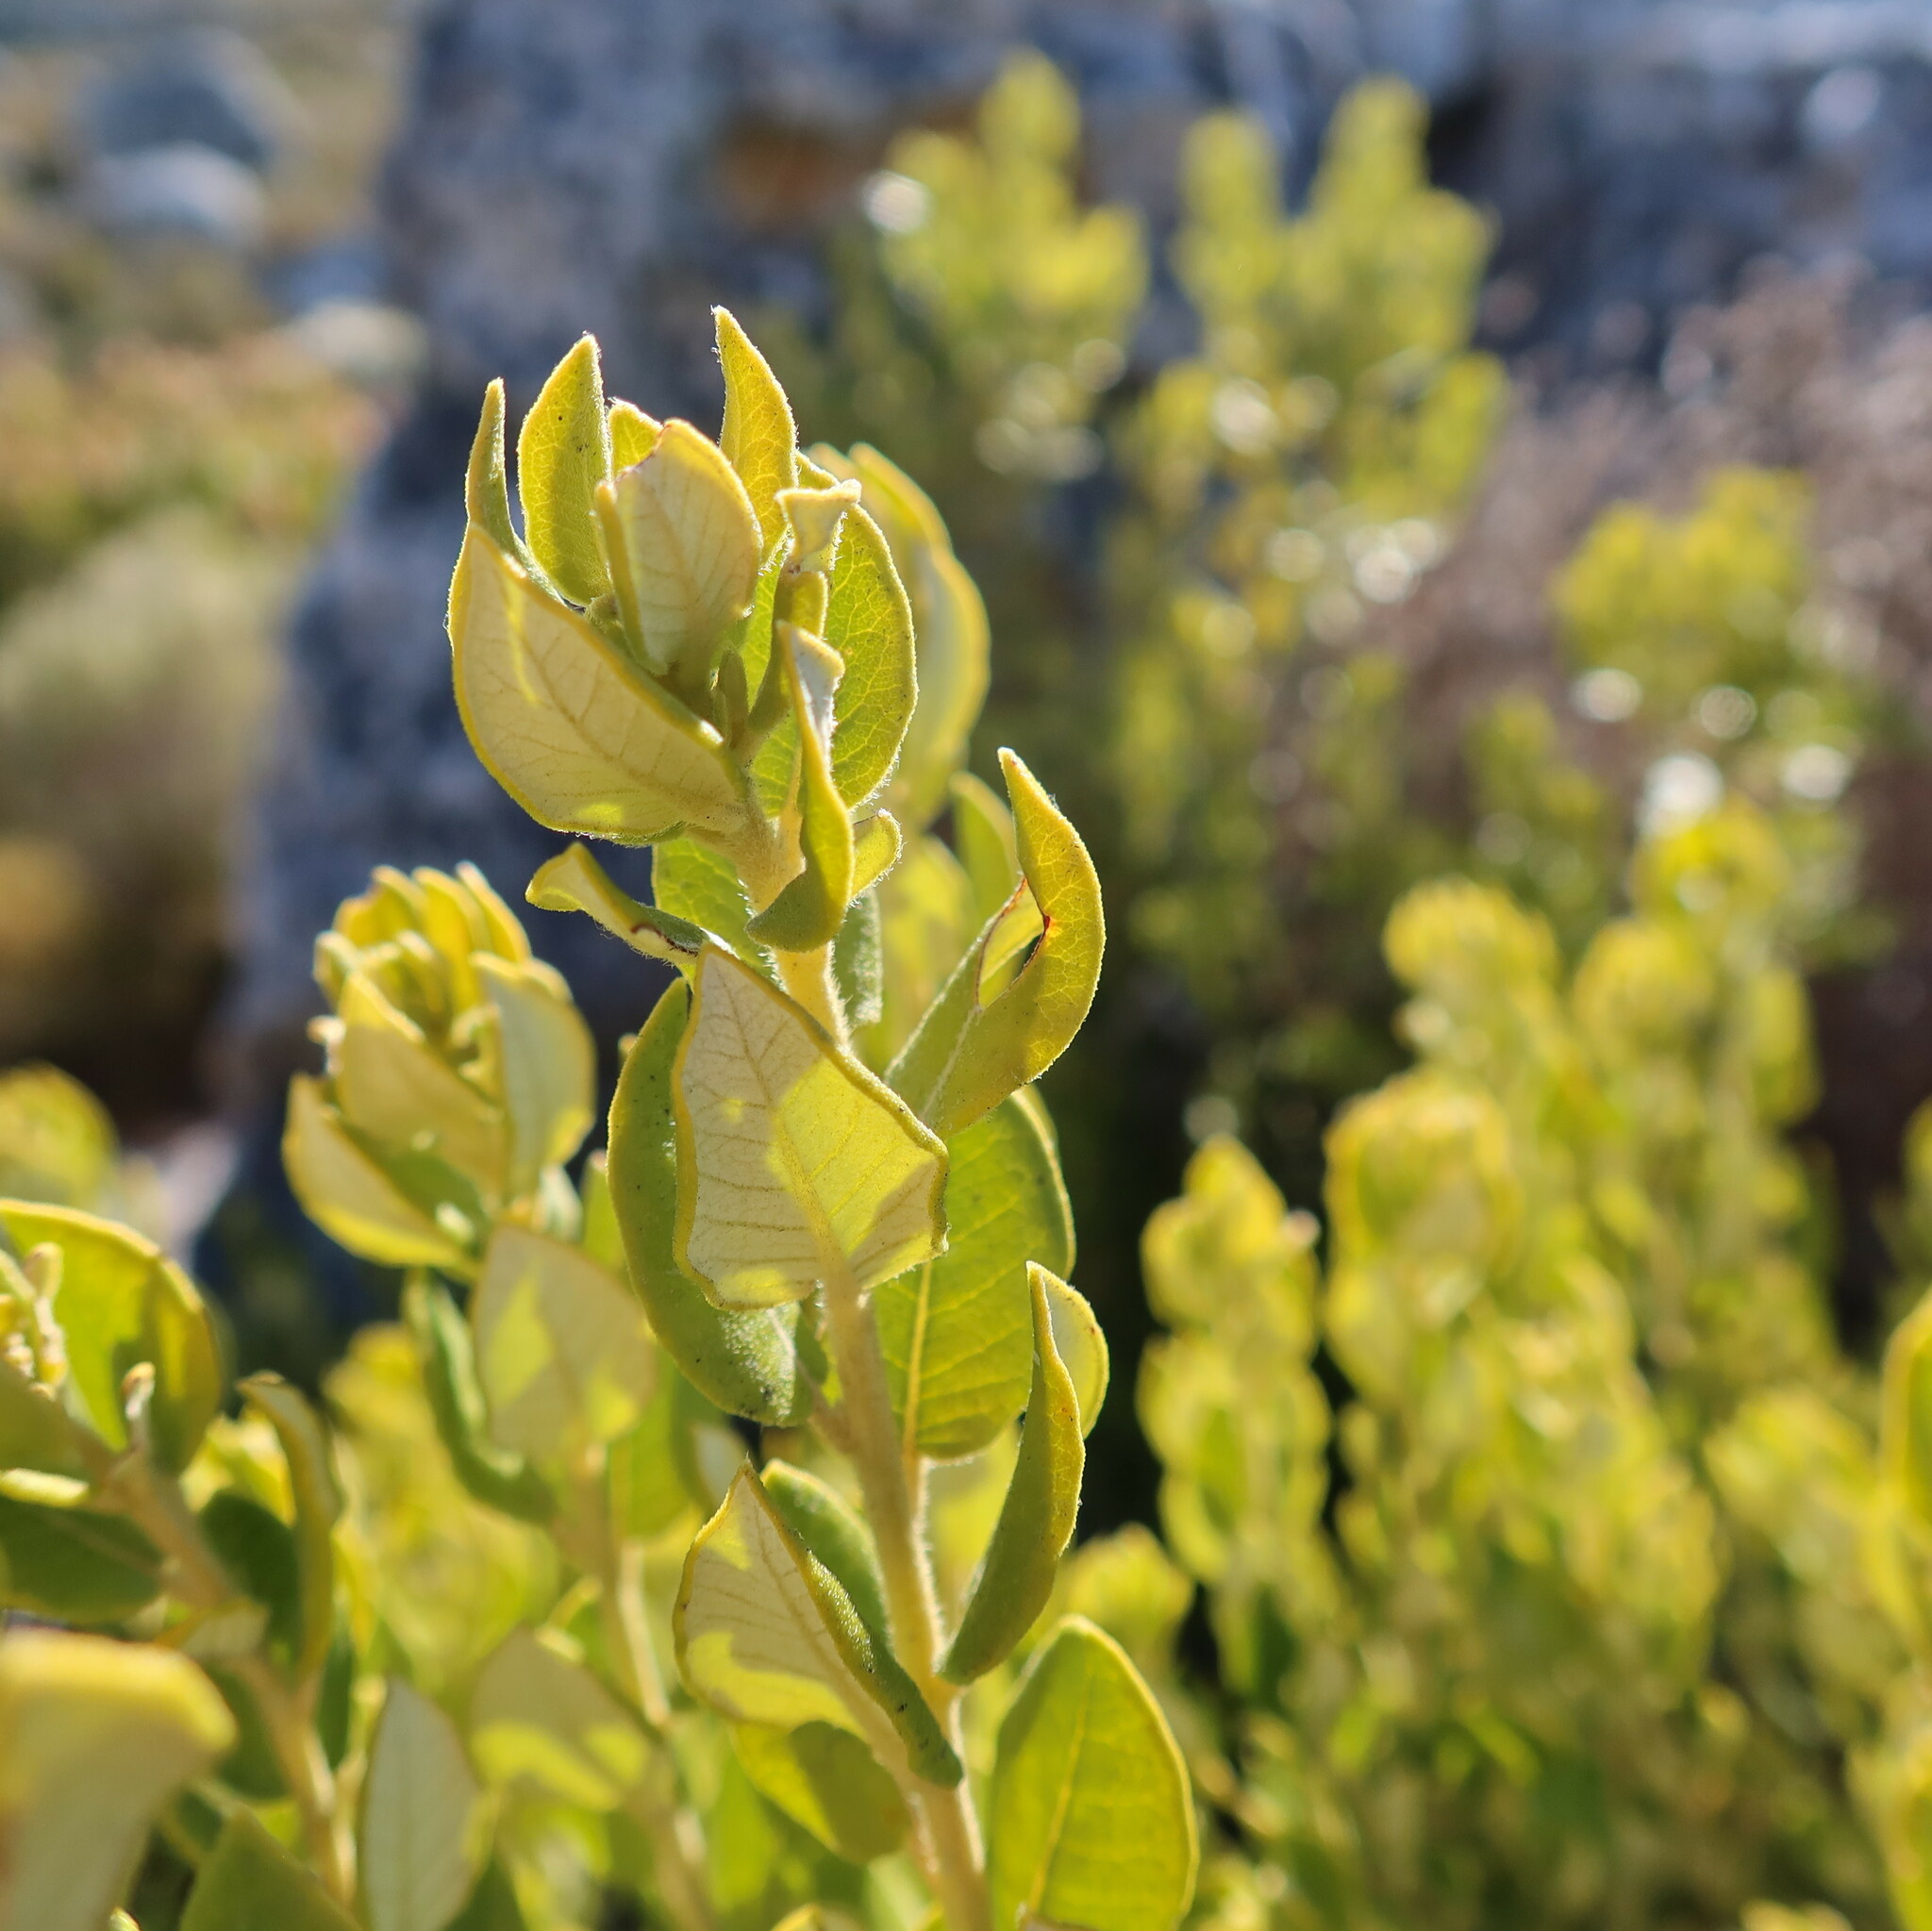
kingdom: Plantae
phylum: Tracheophyta
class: Magnoliopsida
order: Rosales
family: Rhamnaceae
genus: Phylica
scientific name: Phylica buxifolia
